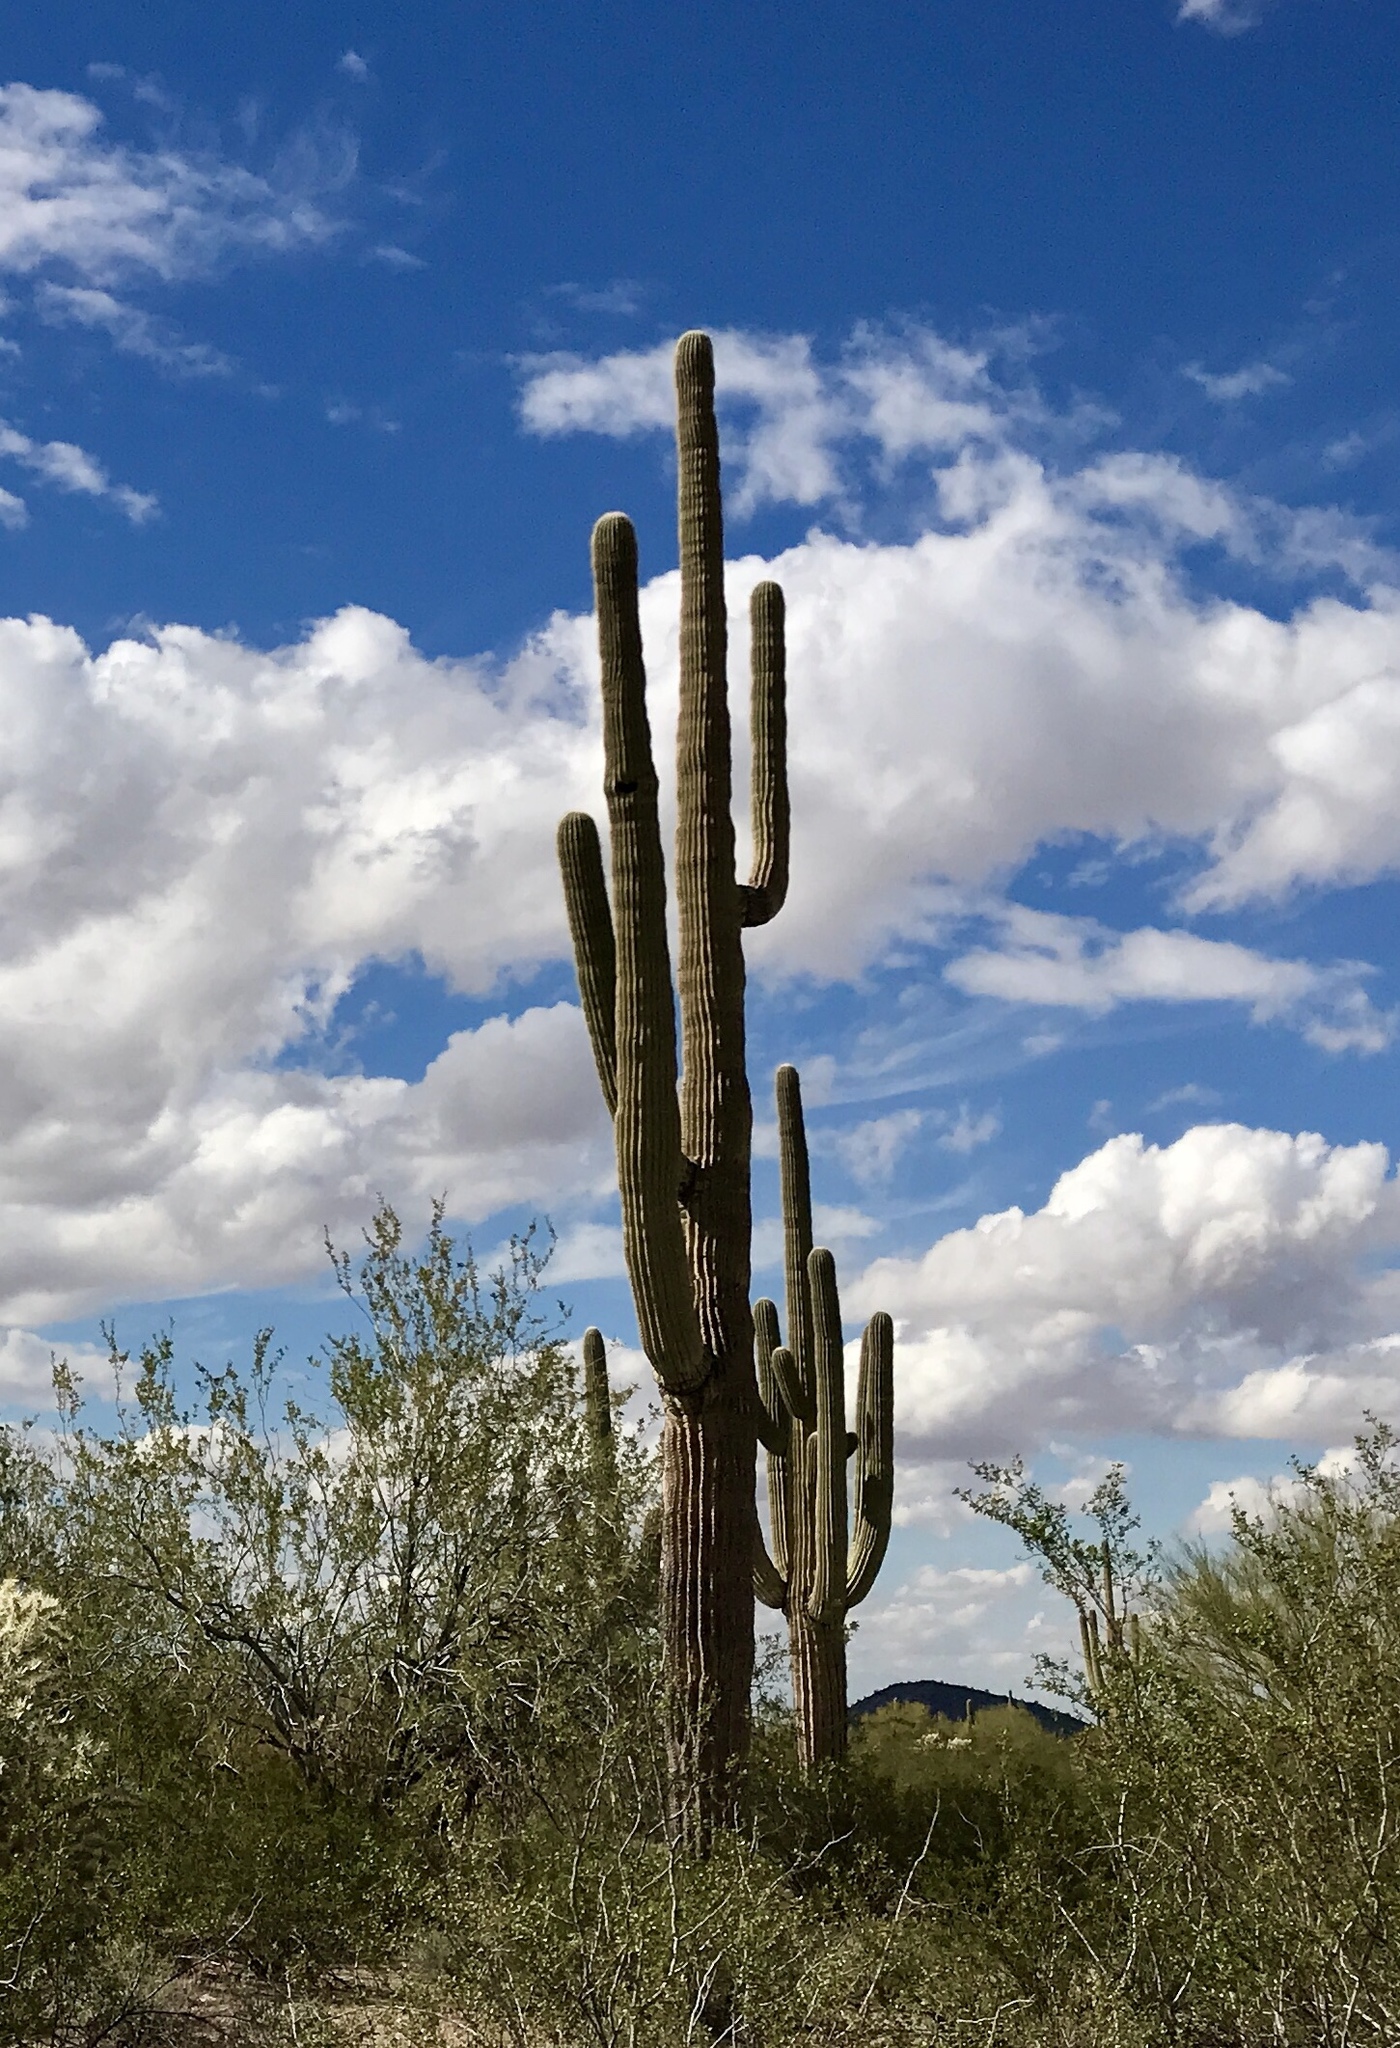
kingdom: Plantae
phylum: Tracheophyta
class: Magnoliopsida
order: Caryophyllales
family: Cactaceae
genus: Carnegiea
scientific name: Carnegiea gigantea
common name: Saguaro
